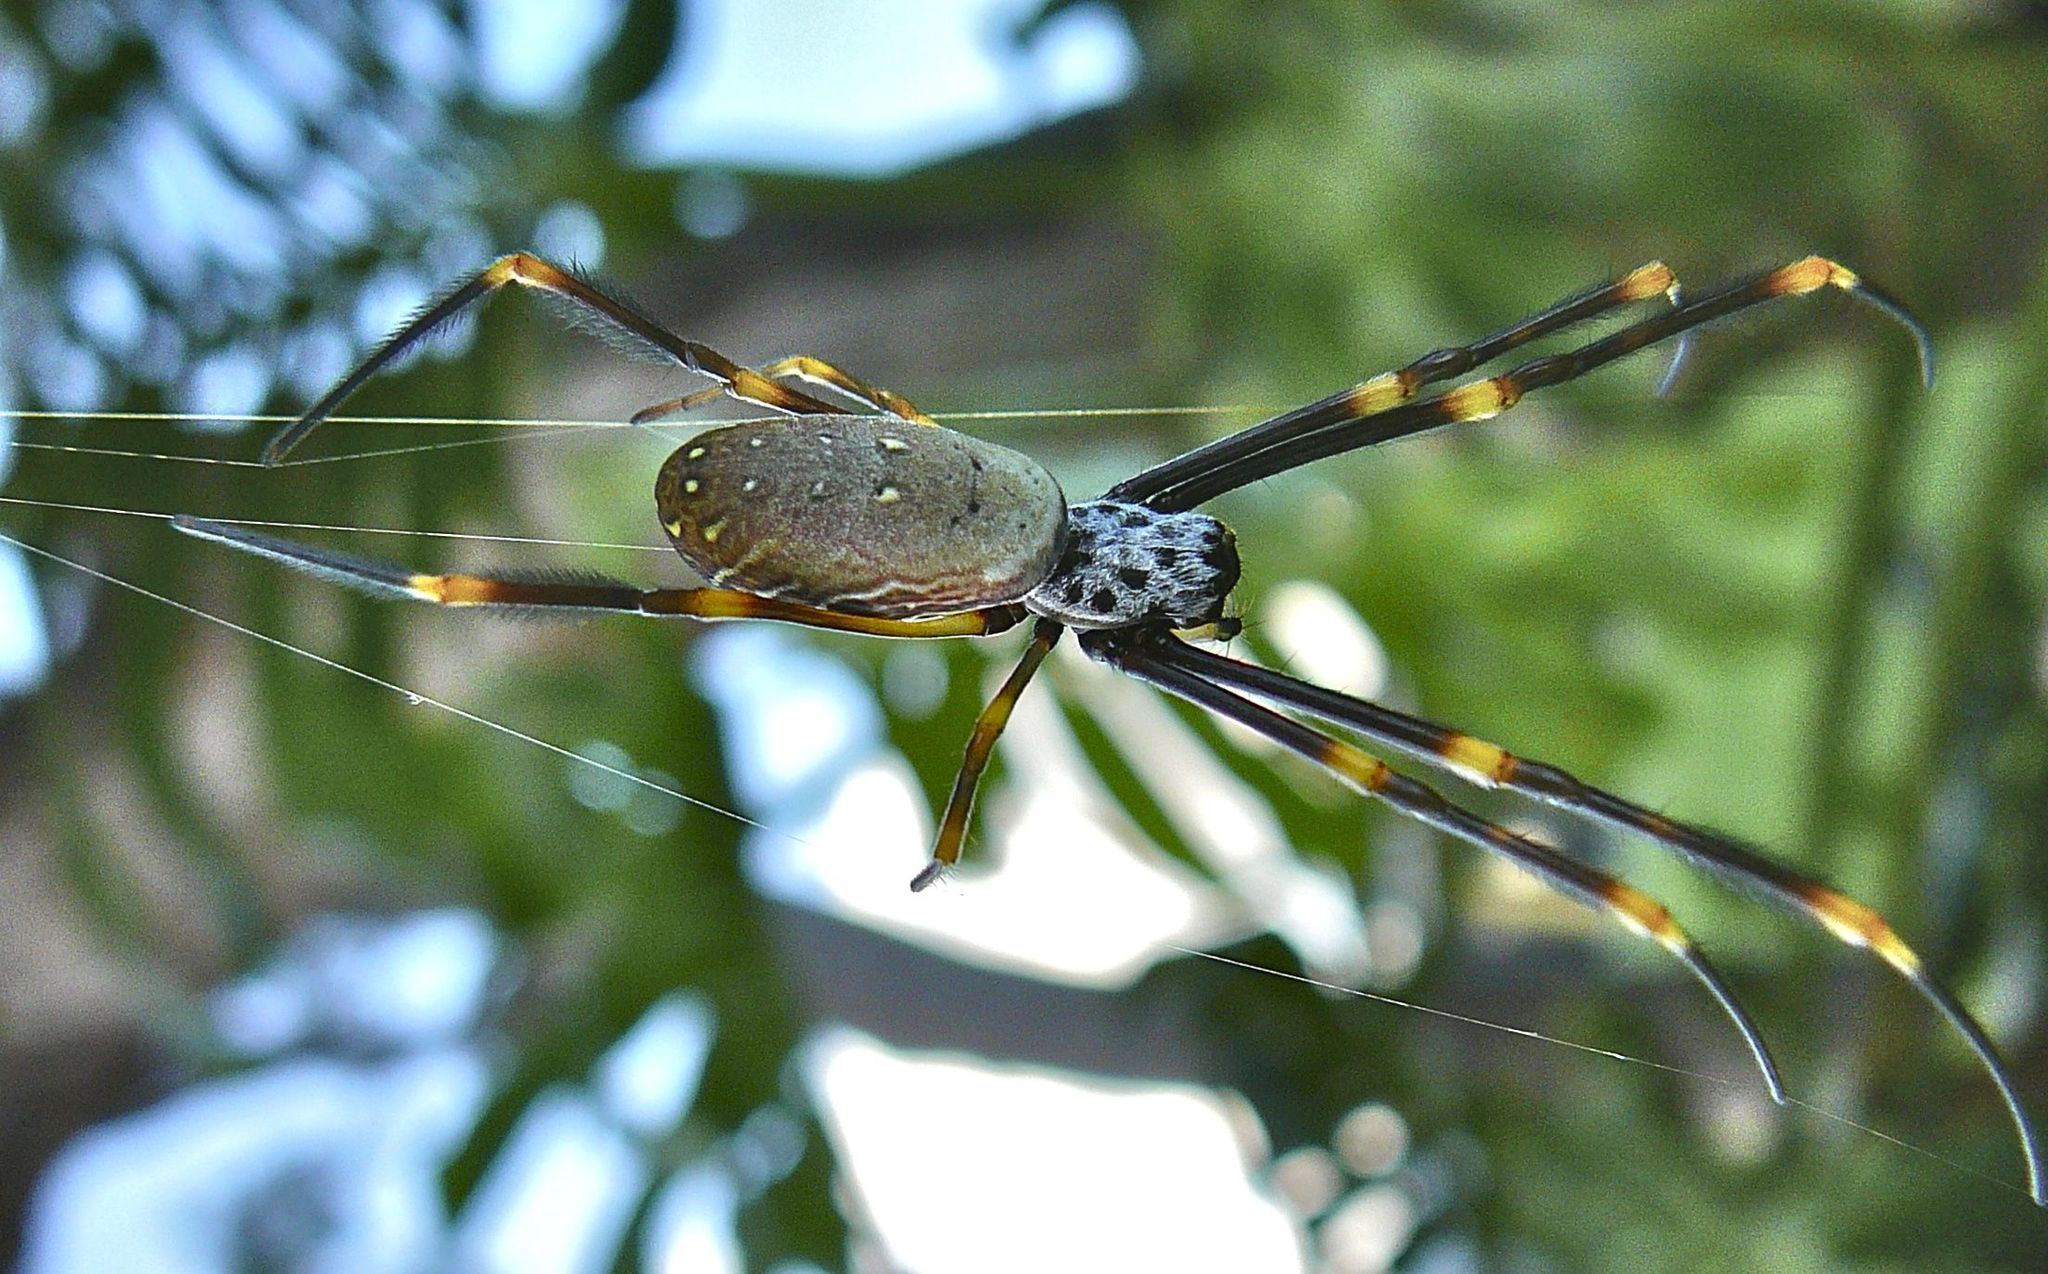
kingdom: Animalia
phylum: Arthropoda
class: Arachnida
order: Araneae
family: Araneidae
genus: Trichonephila
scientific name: Trichonephila plumipes
